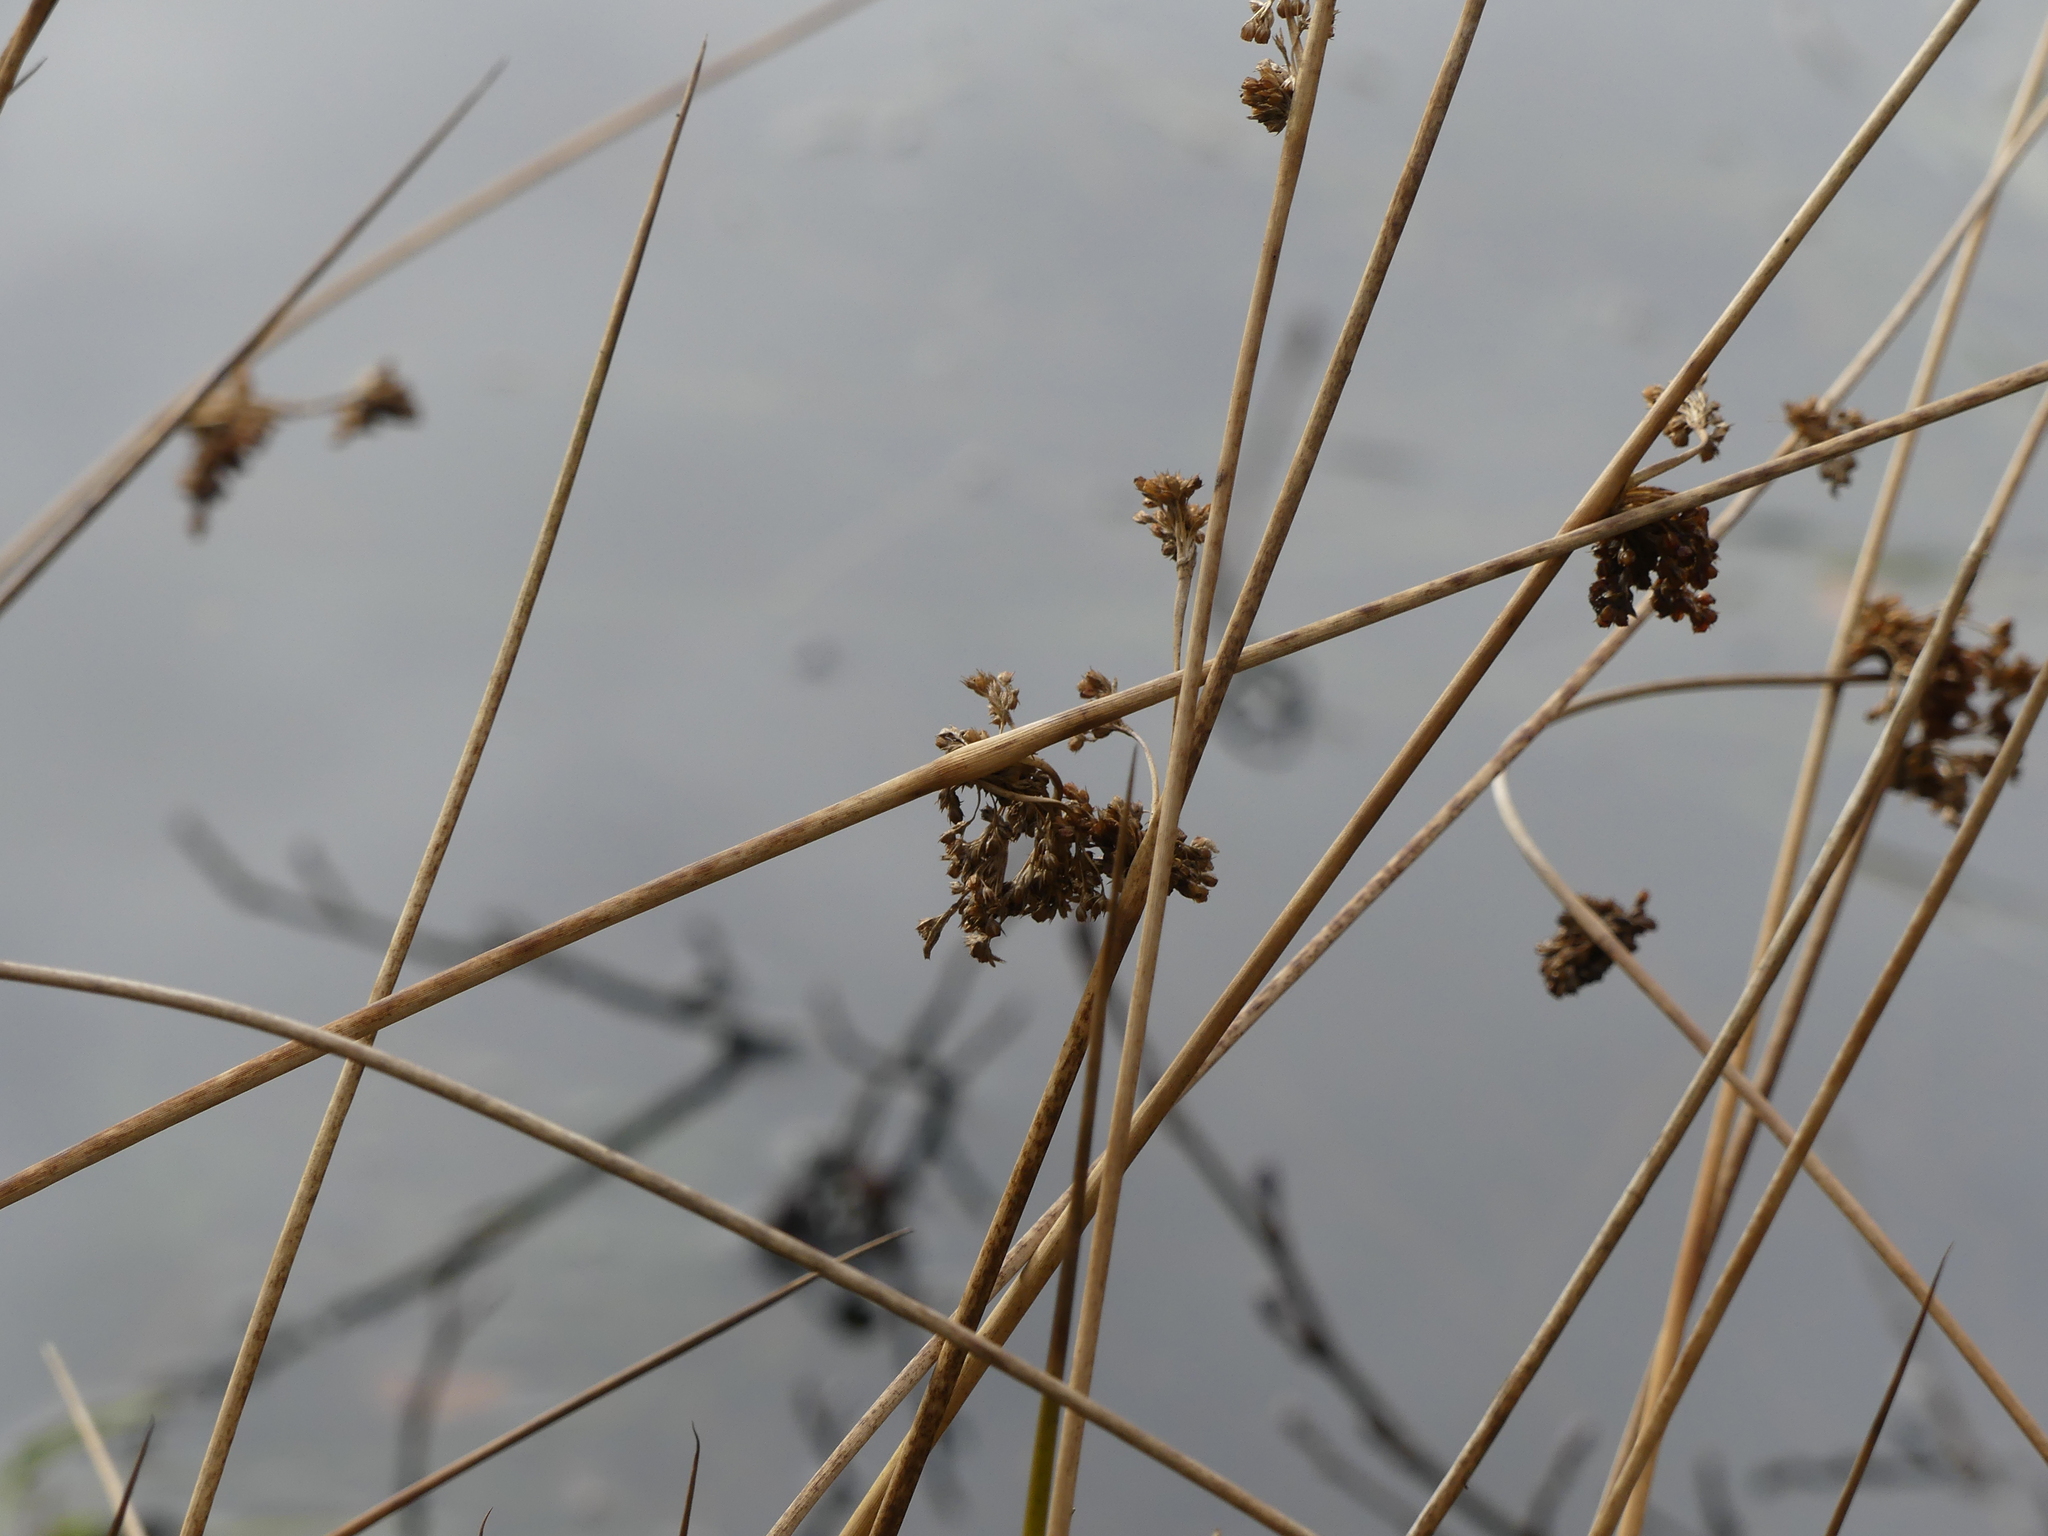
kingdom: Plantae
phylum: Tracheophyta
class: Liliopsida
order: Poales
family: Juncaceae
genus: Juncus
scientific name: Juncus effusus
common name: Soft rush
